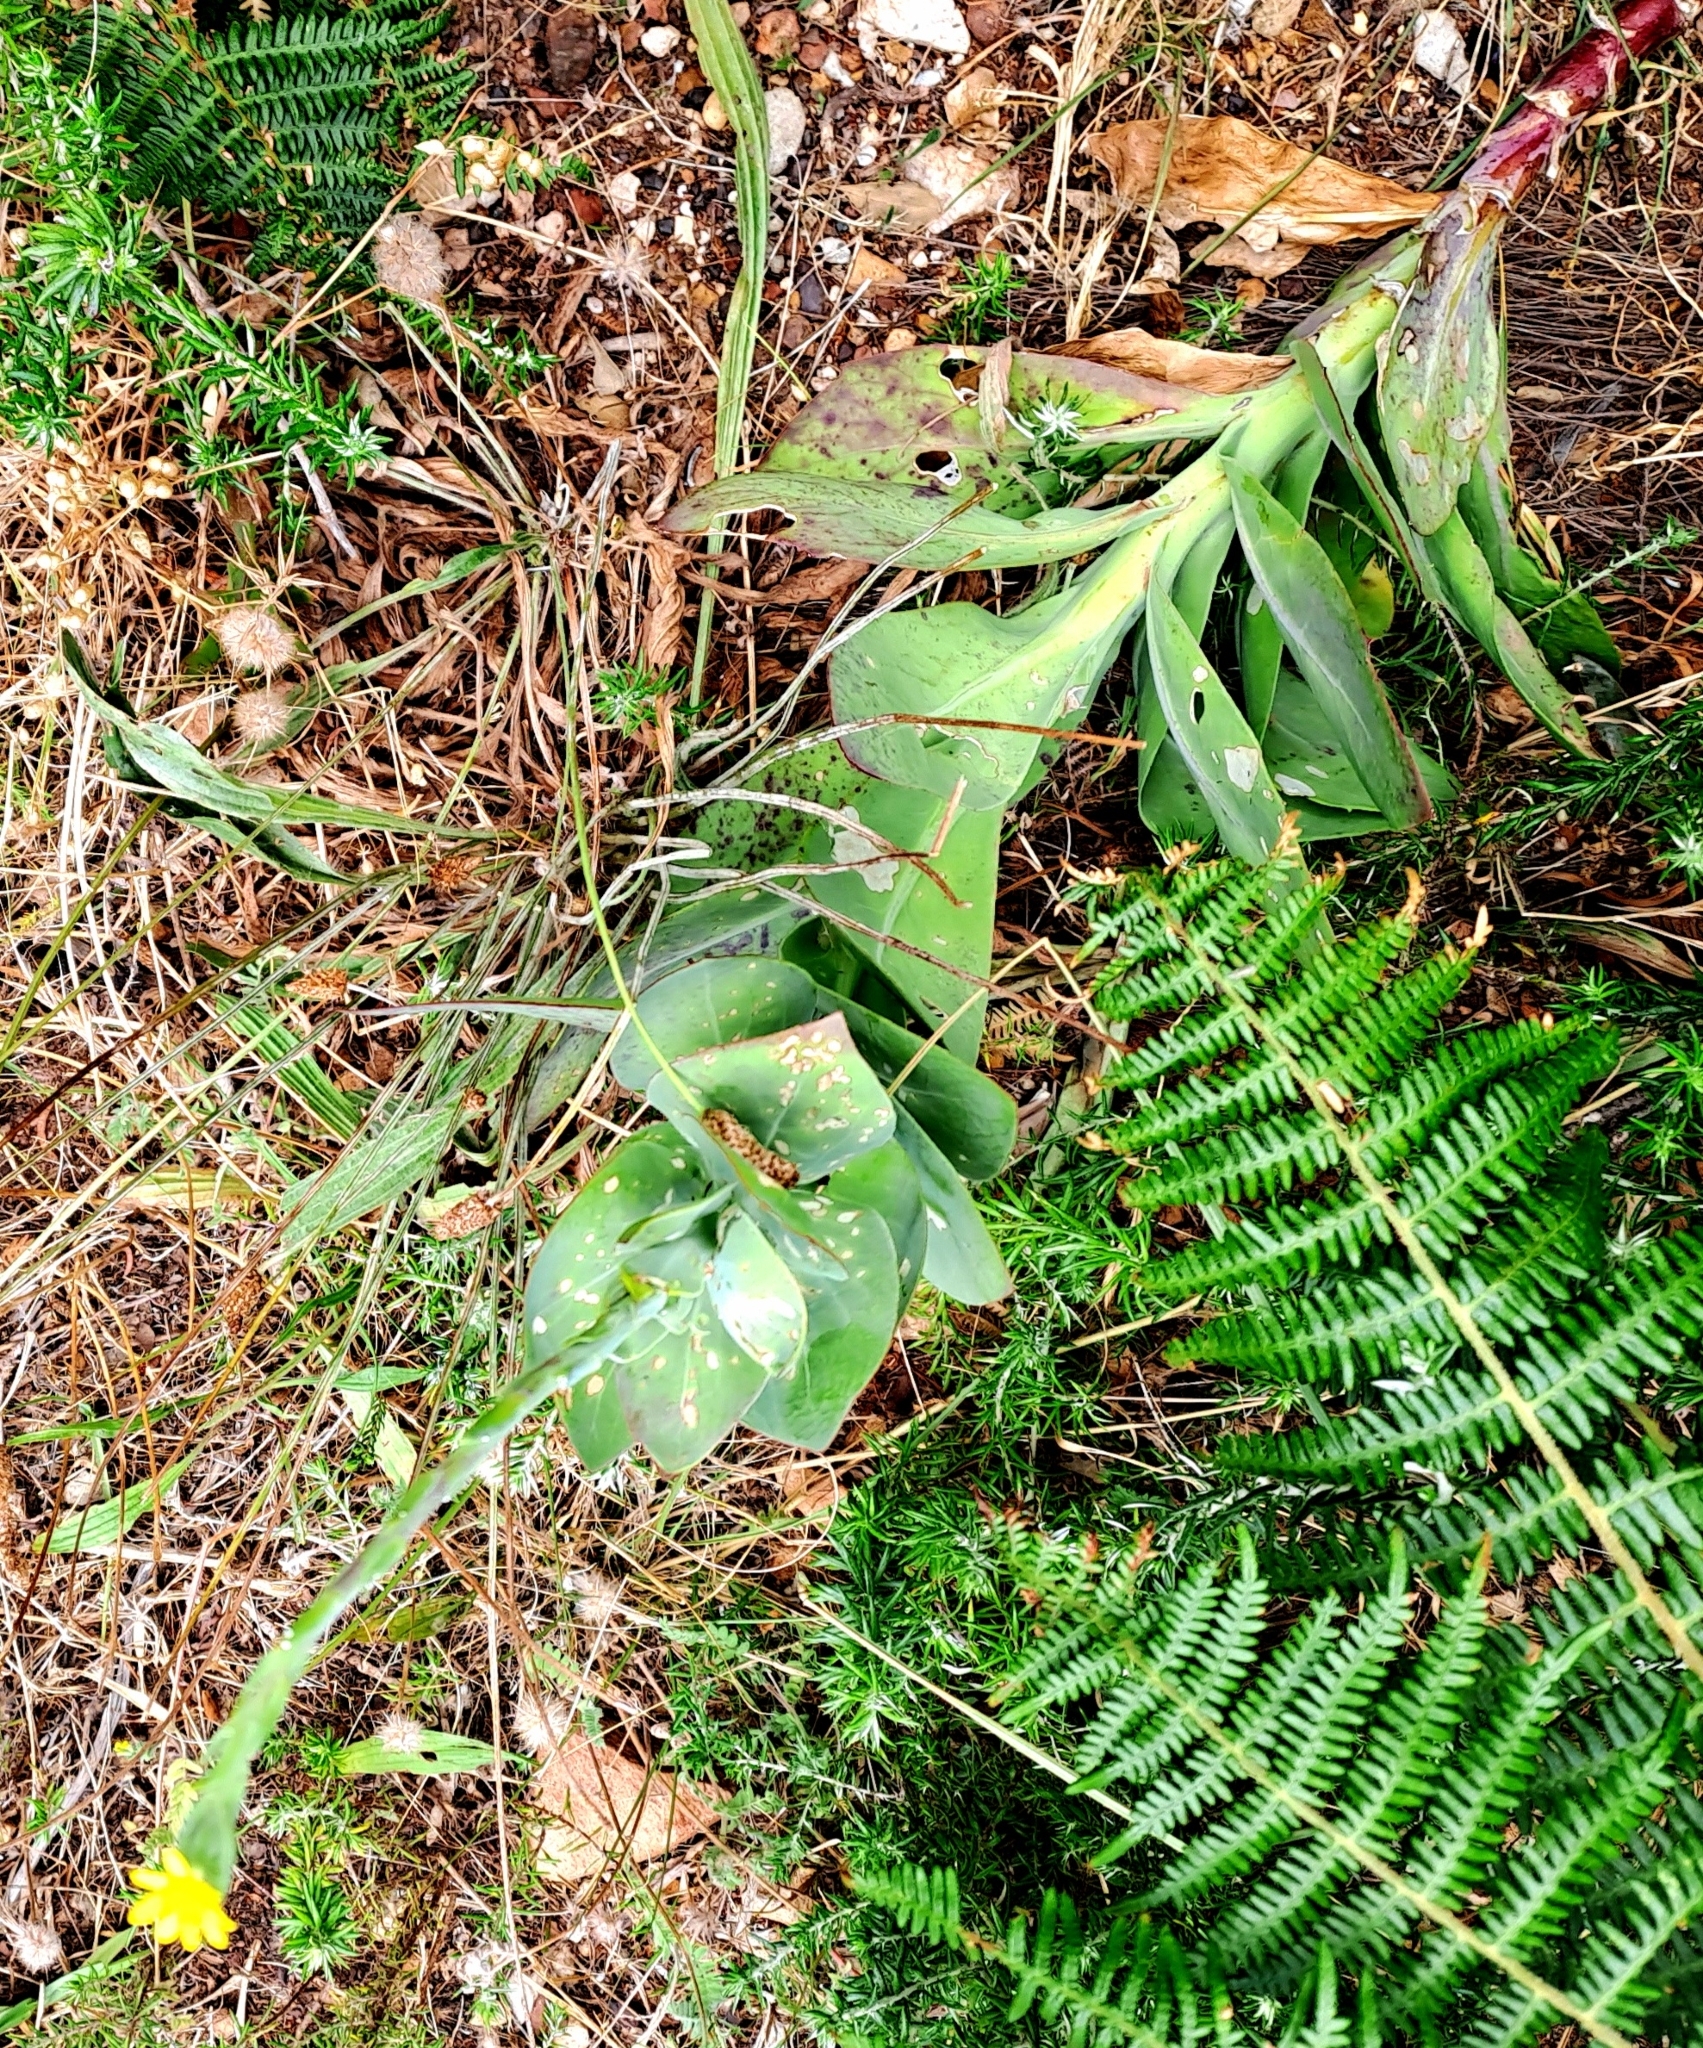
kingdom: Plantae
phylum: Tracheophyta
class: Magnoliopsida
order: Asterales
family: Asteraceae
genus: Othonna
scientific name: Othonna quinquedentata
